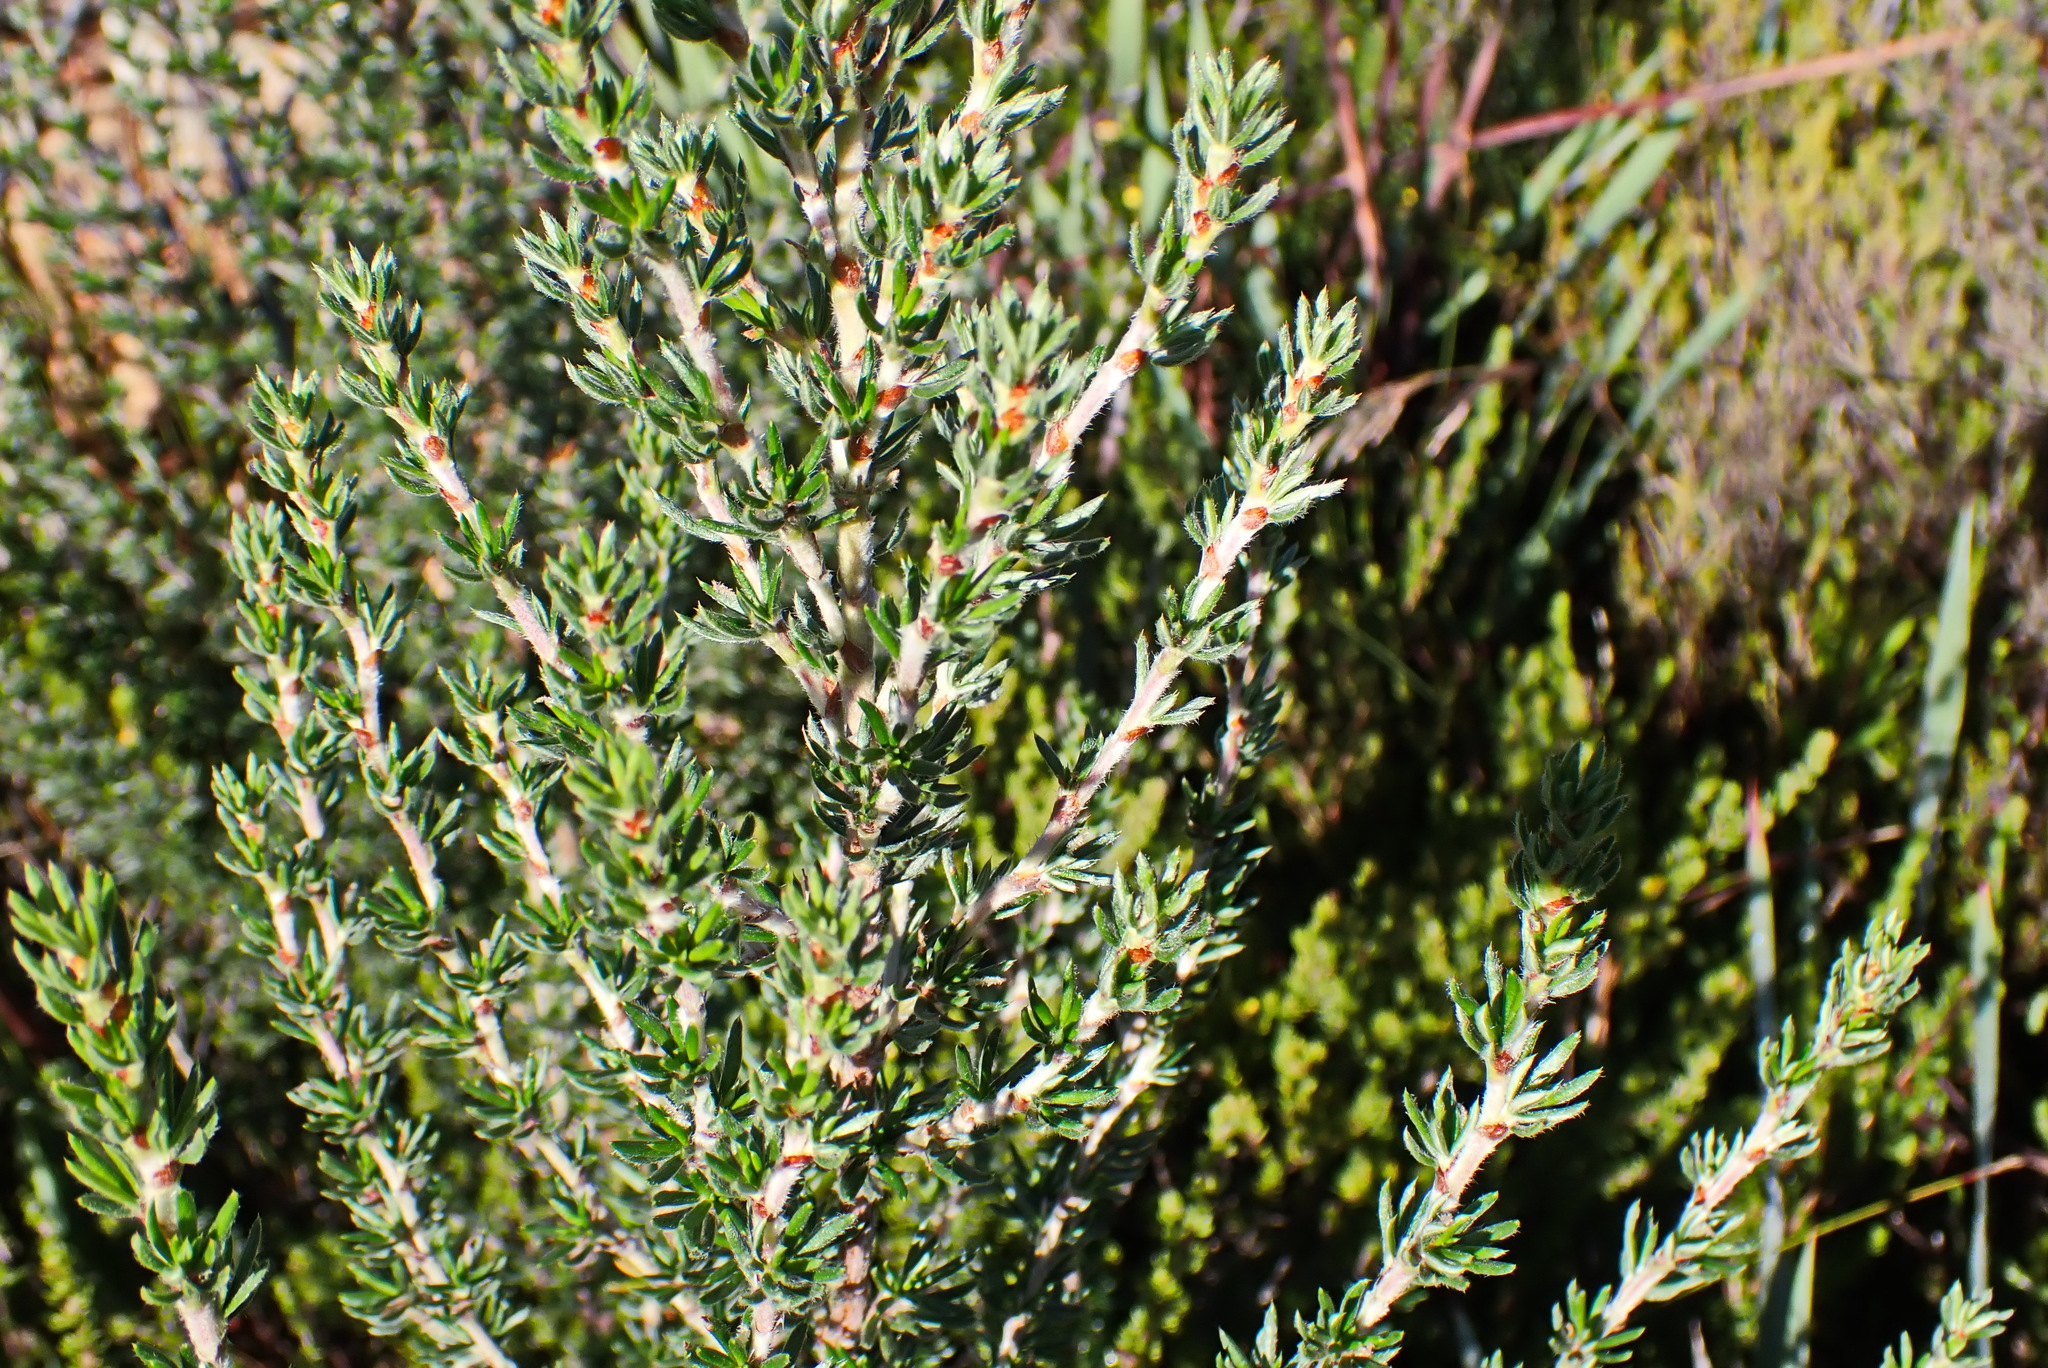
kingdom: Plantae
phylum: Tracheophyta
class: Magnoliopsida
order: Rosales
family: Rosaceae
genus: Cliffortia
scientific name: Cliffortia stricta
